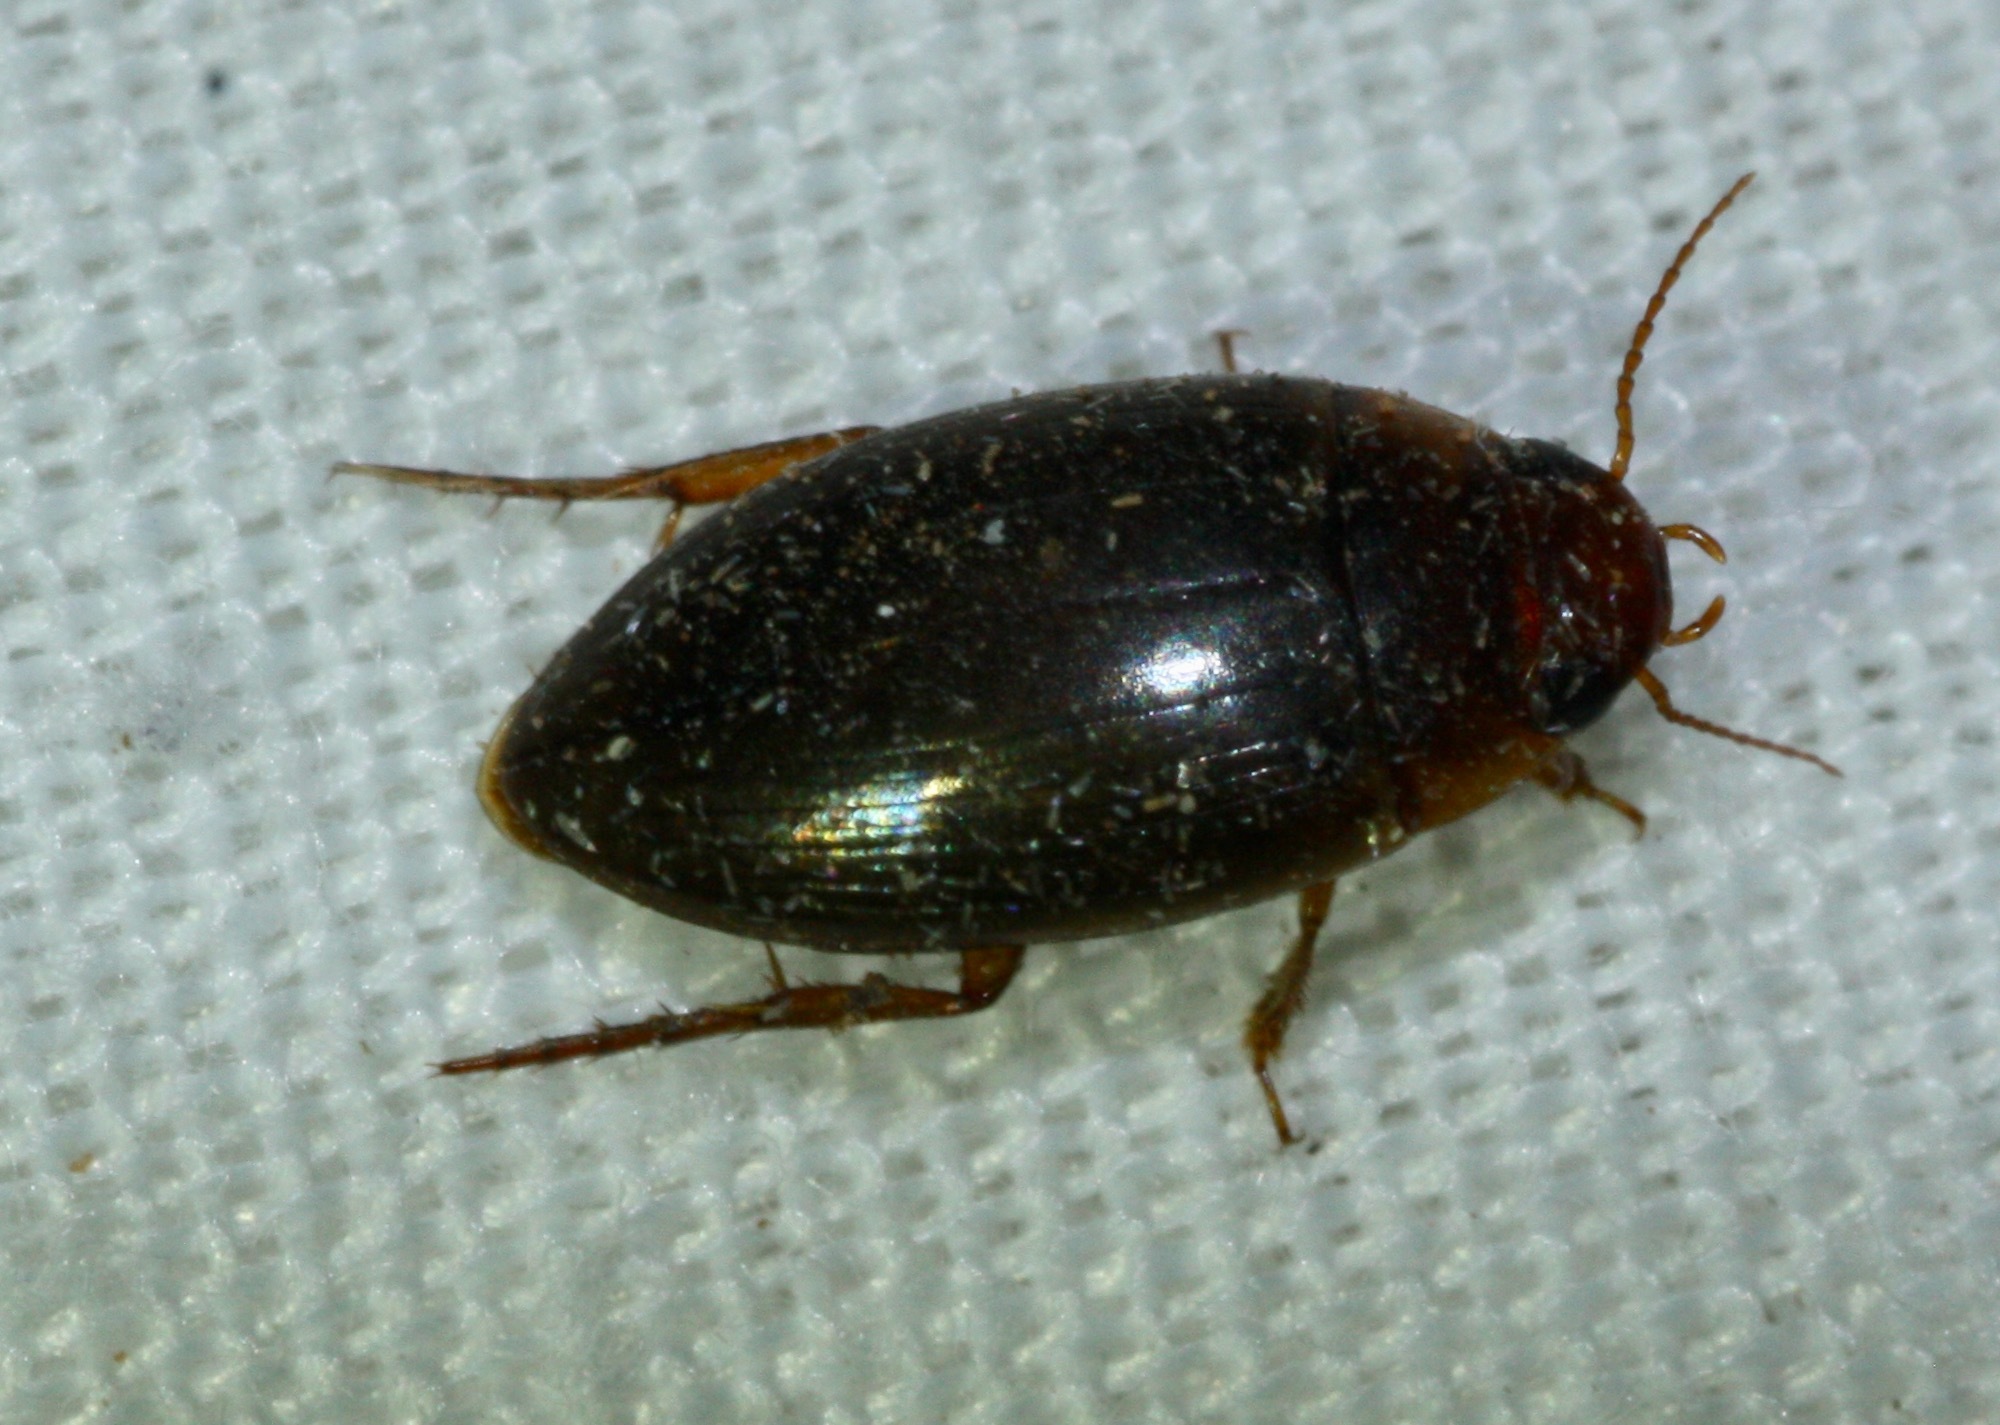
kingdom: Animalia
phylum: Arthropoda
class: Insecta
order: Coleoptera
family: Dytiscidae
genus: Copelatus
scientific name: Copelatus chevrolati
